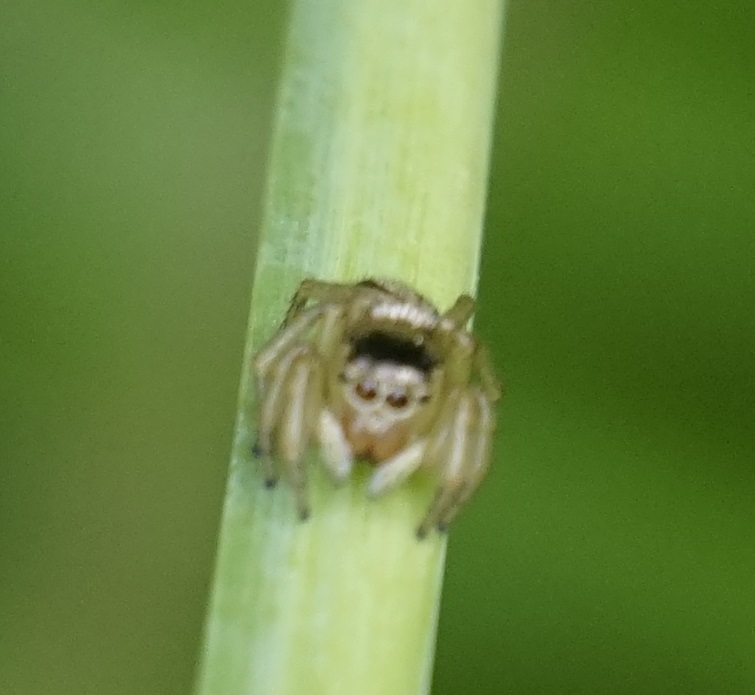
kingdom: Animalia
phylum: Arthropoda
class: Arachnida
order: Araneae
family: Salticidae
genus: Maratus
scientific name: Maratus scutulatus
